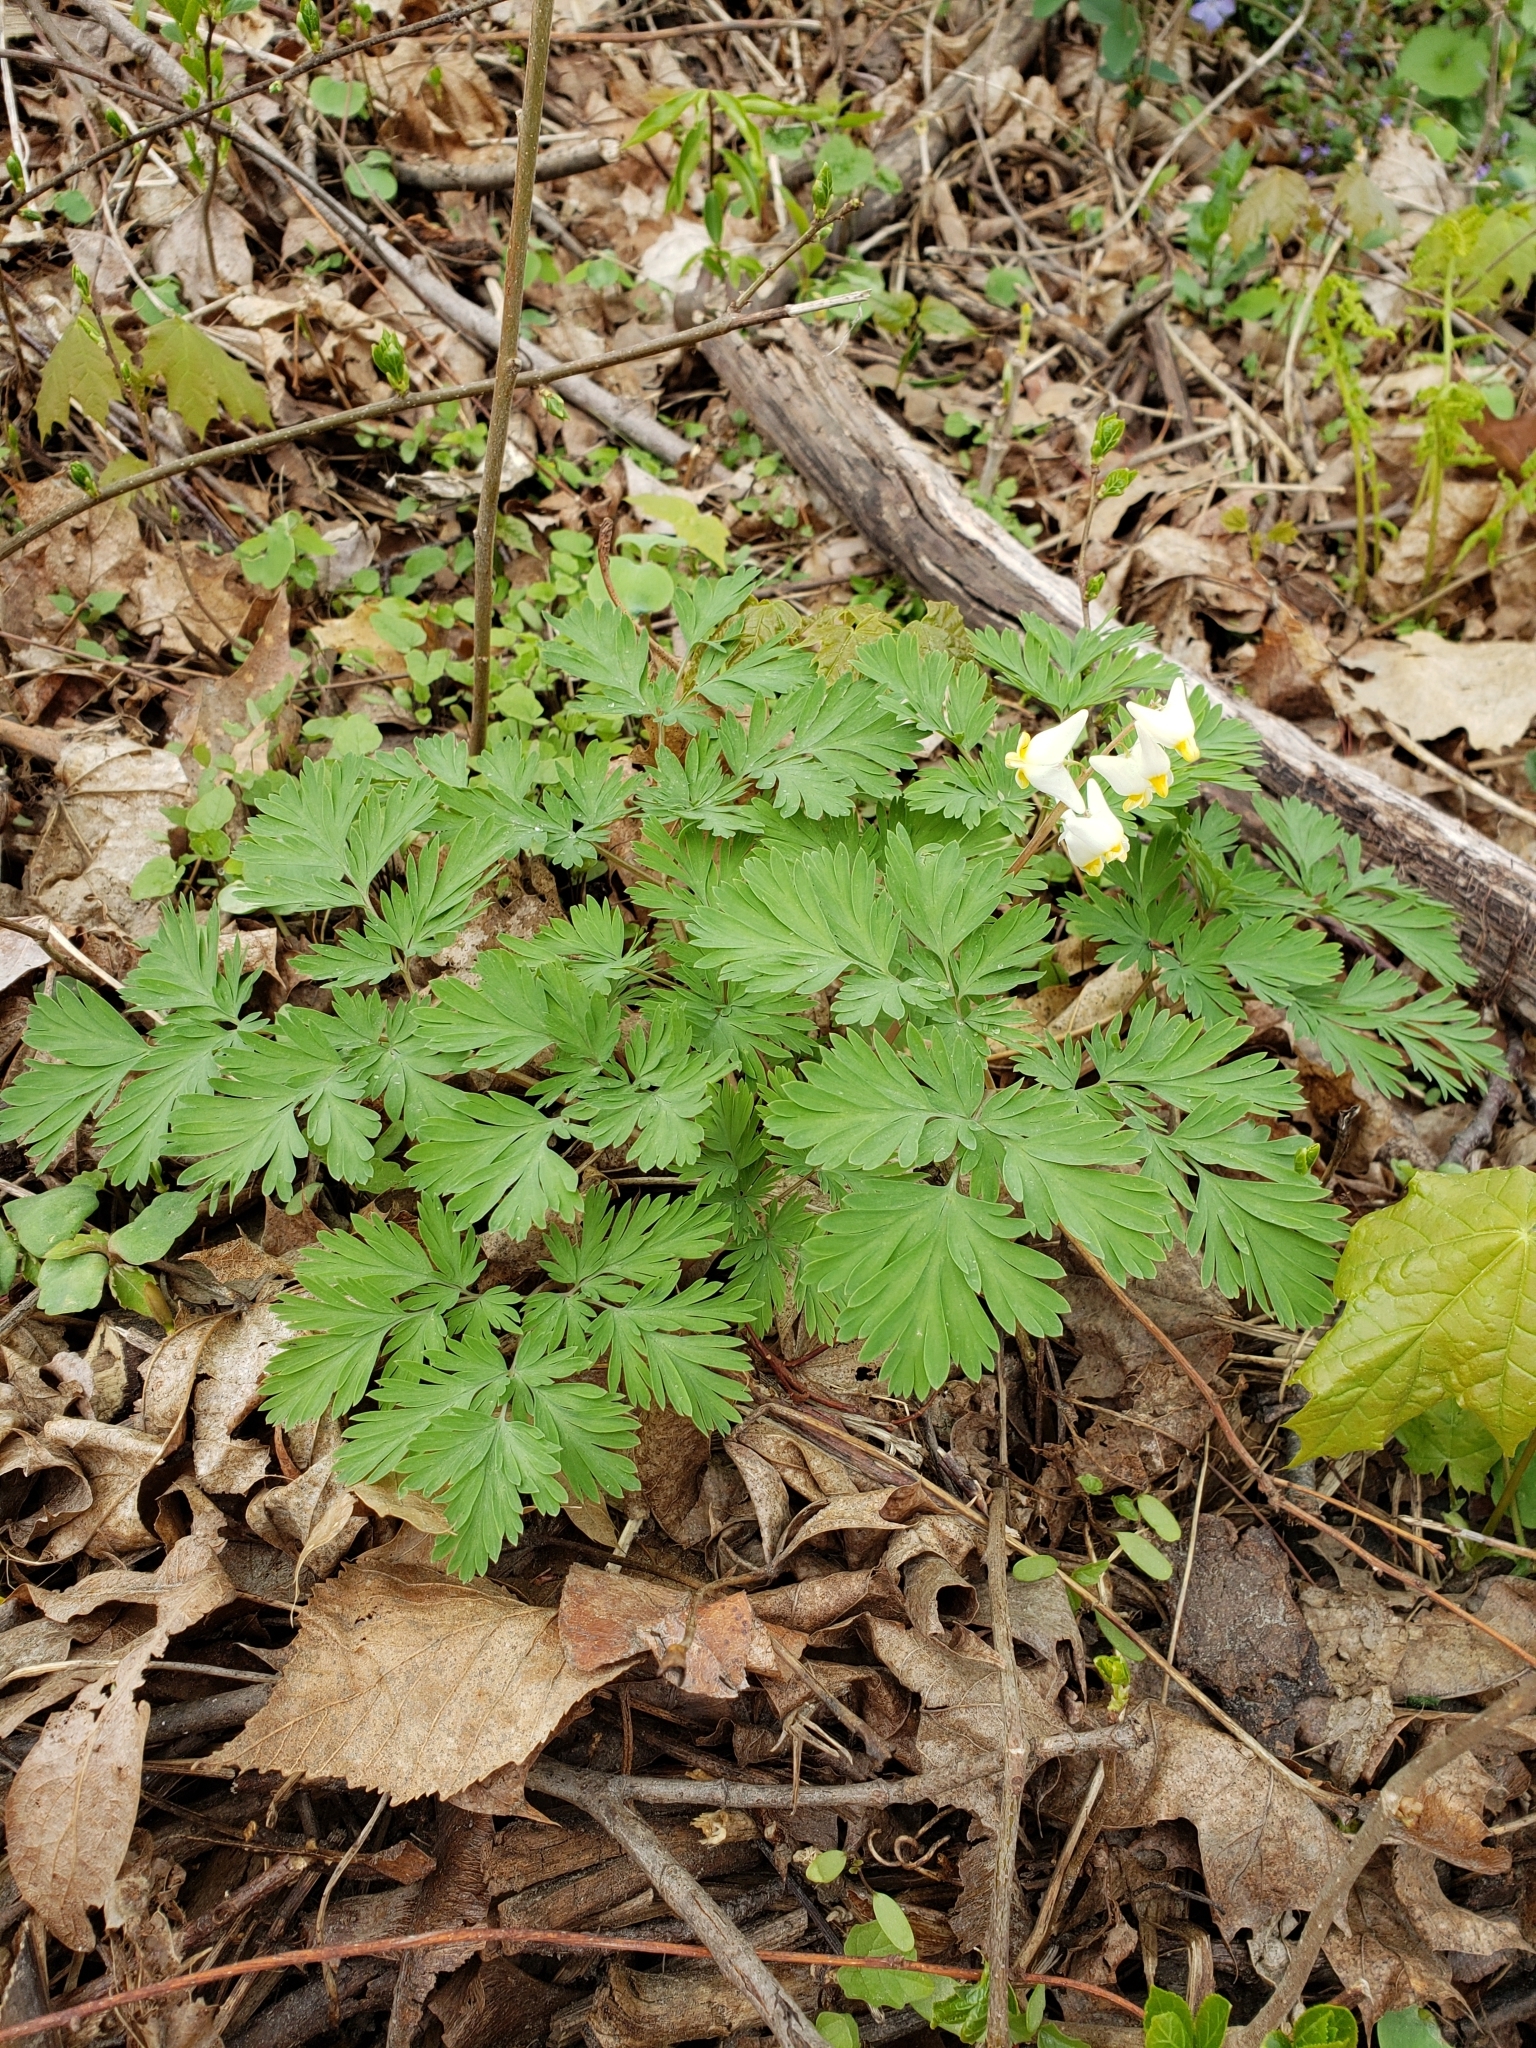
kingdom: Plantae
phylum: Tracheophyta
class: Magnoliopsida
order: Ranunculales
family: Papaveraceae
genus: Dicentra
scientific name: Dicentra cucullaria
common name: Dutchman's breeches
